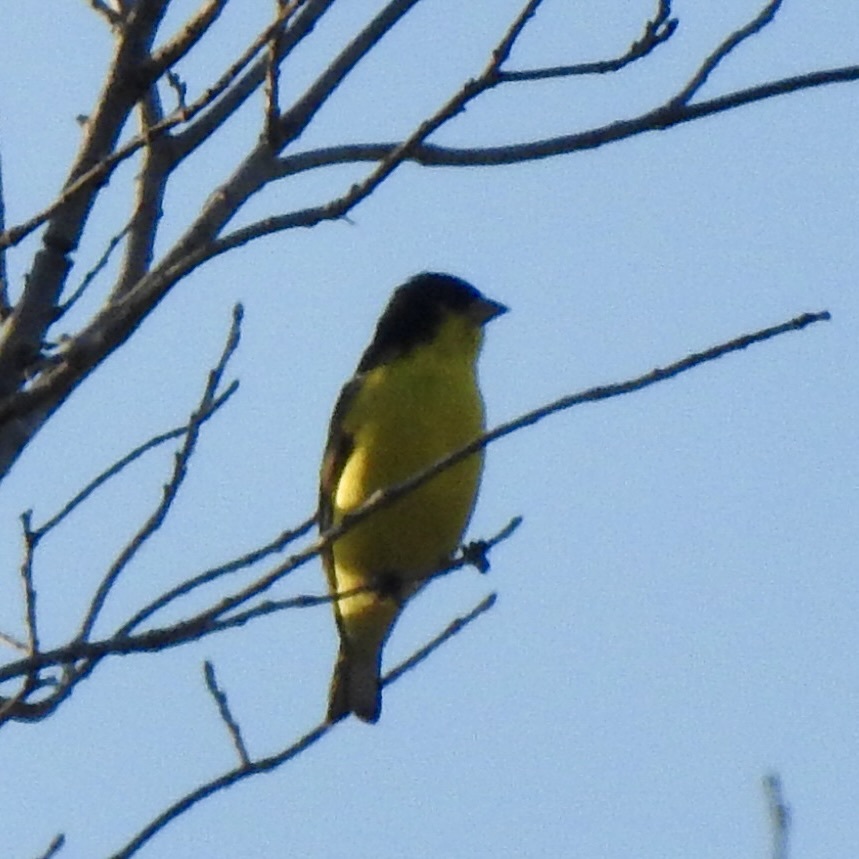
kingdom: Animalia
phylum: Chordata
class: Aves
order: Passeriformes
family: Fringillidae
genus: Spinus
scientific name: Spinus psaltria
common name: Lesser goldfinch
